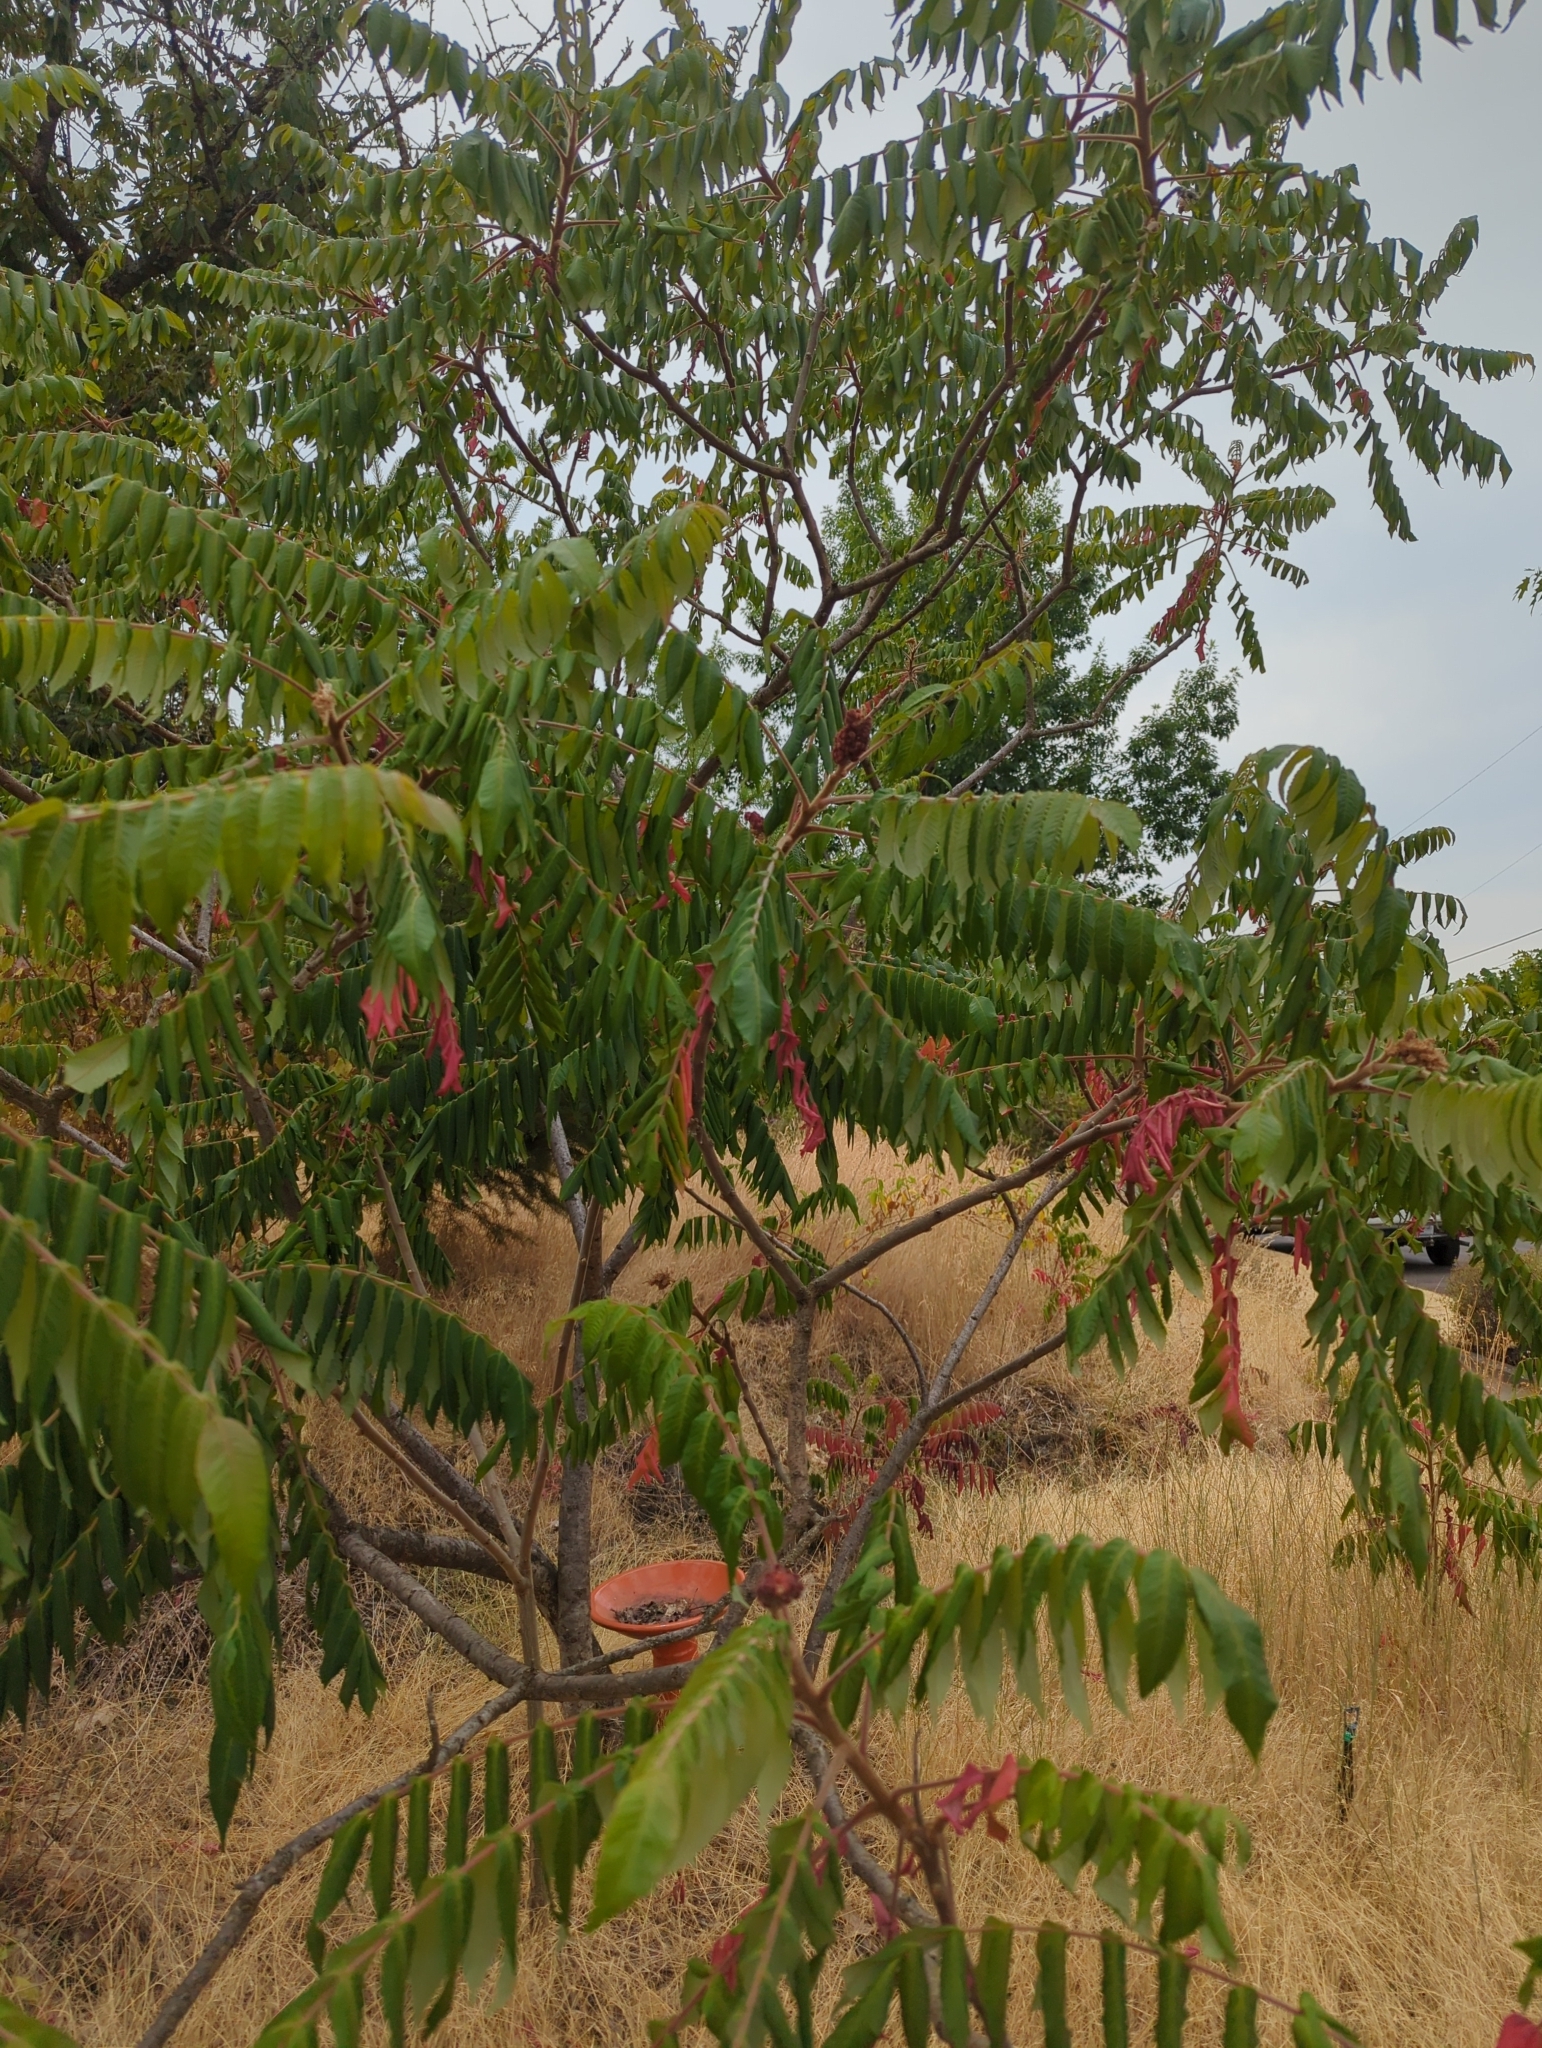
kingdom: Plantae
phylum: Tracheophyta
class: Magnoliopsida
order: Sapindales
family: Anacardiaceae
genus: Rhus
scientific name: Rhus typhina
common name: Staghorn sumac
